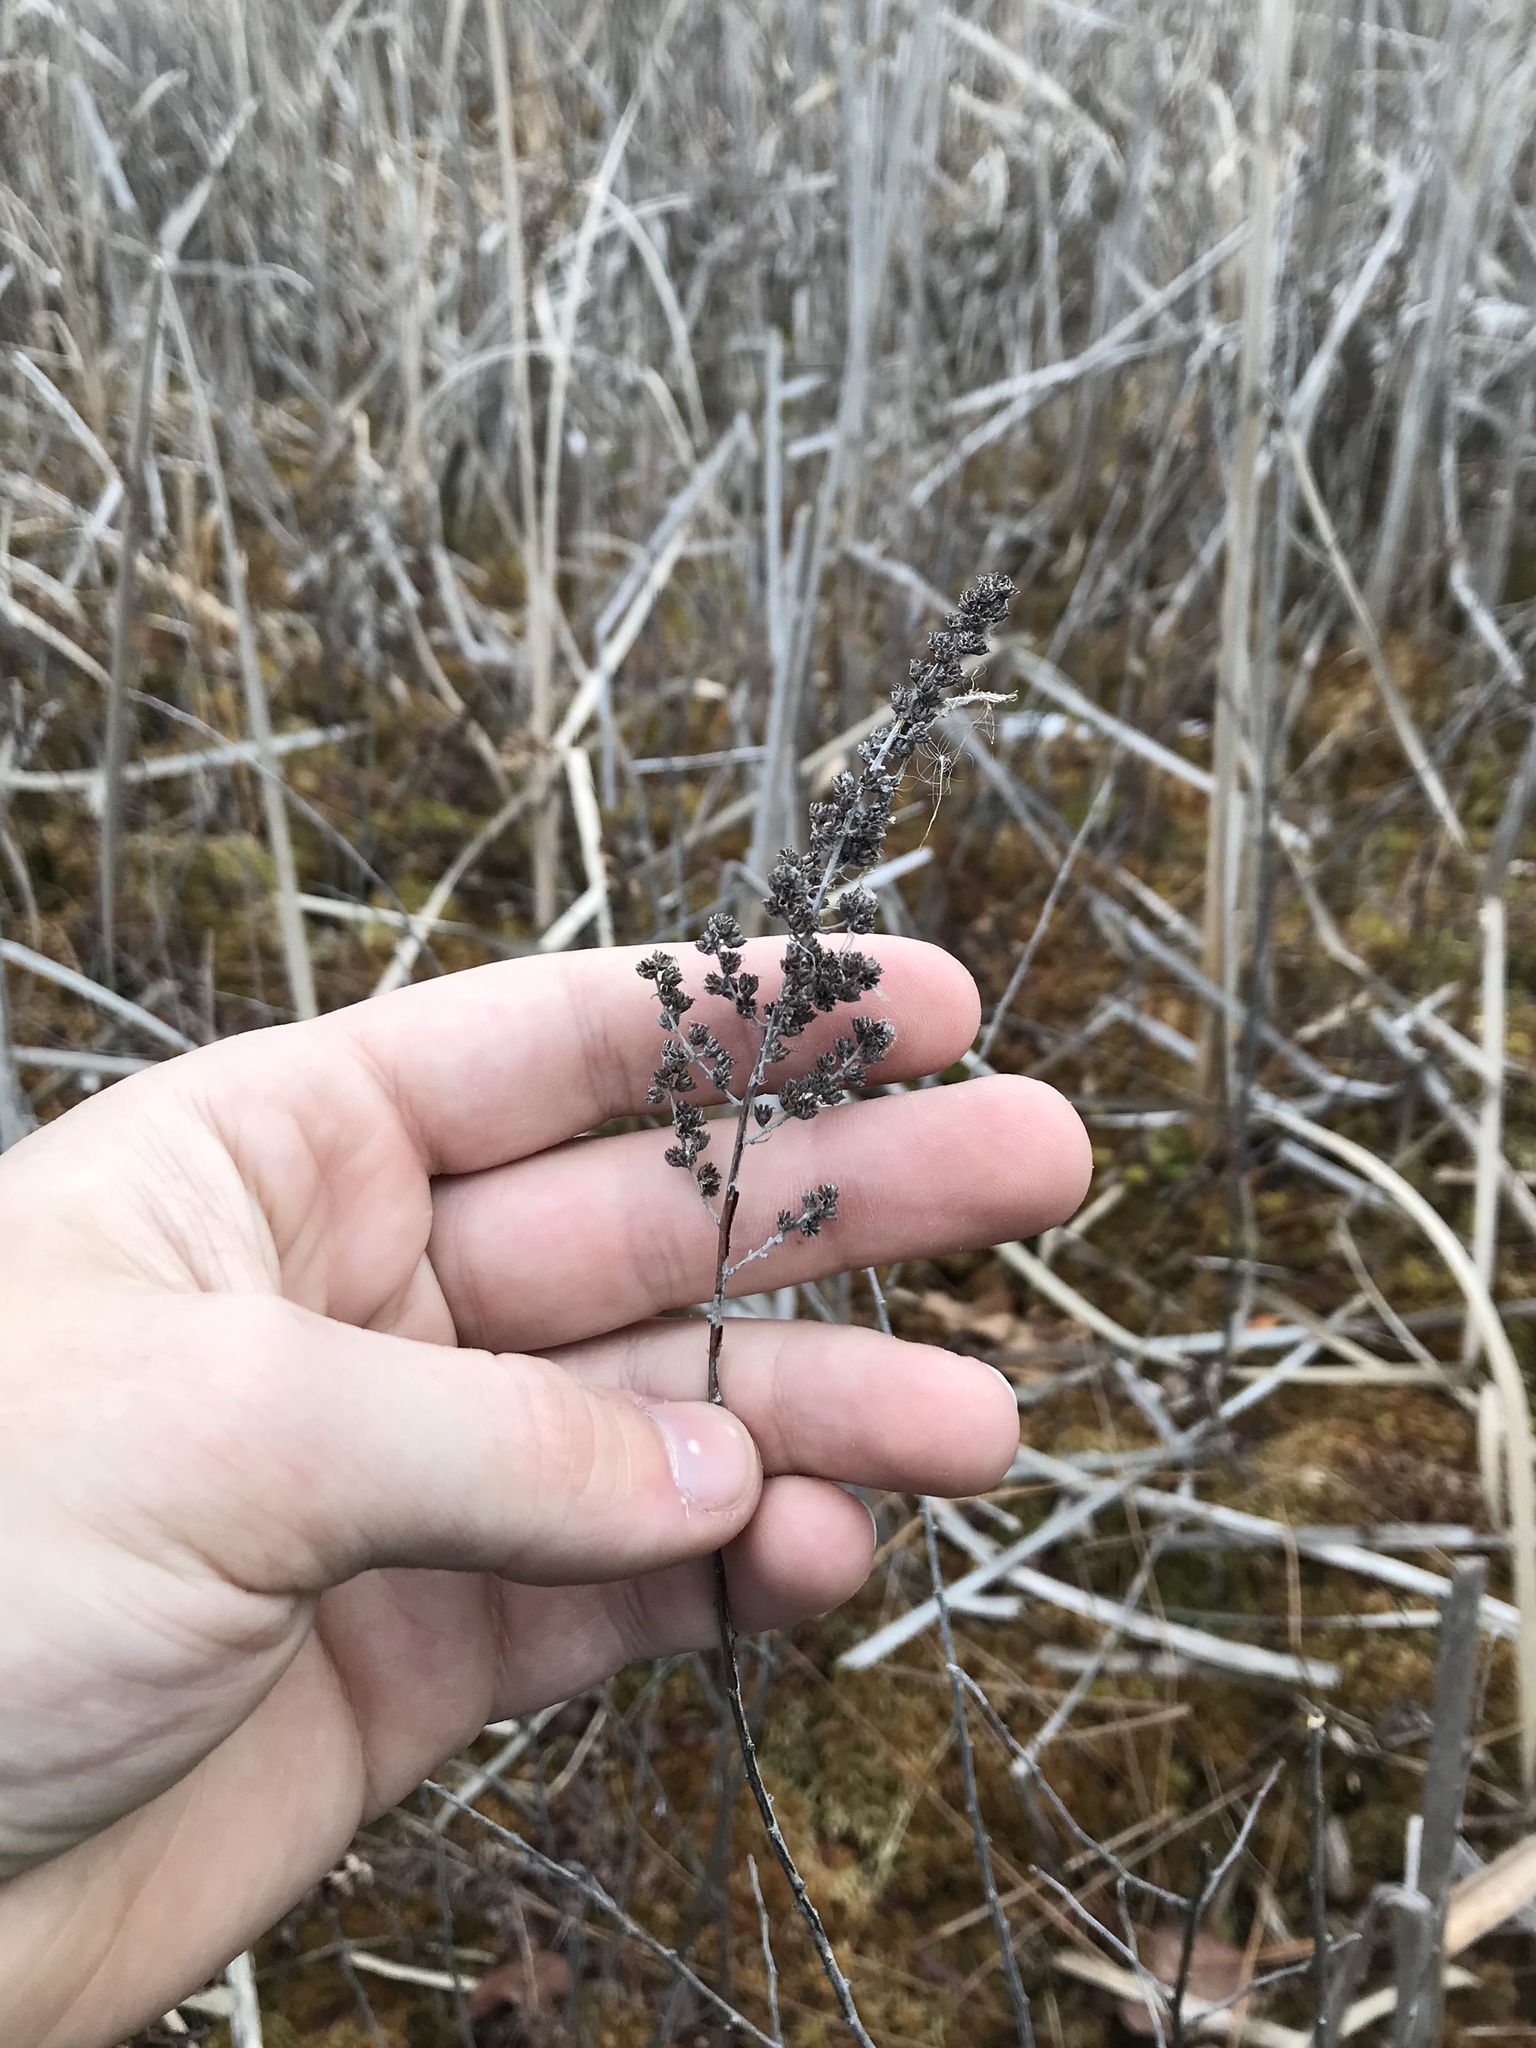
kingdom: Plantae
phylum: Tracheophyta
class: Magnoliopsida
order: Rosales
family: Rosaceae
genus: Spiraea
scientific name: Spiraea tomentosa
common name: Hardhack
